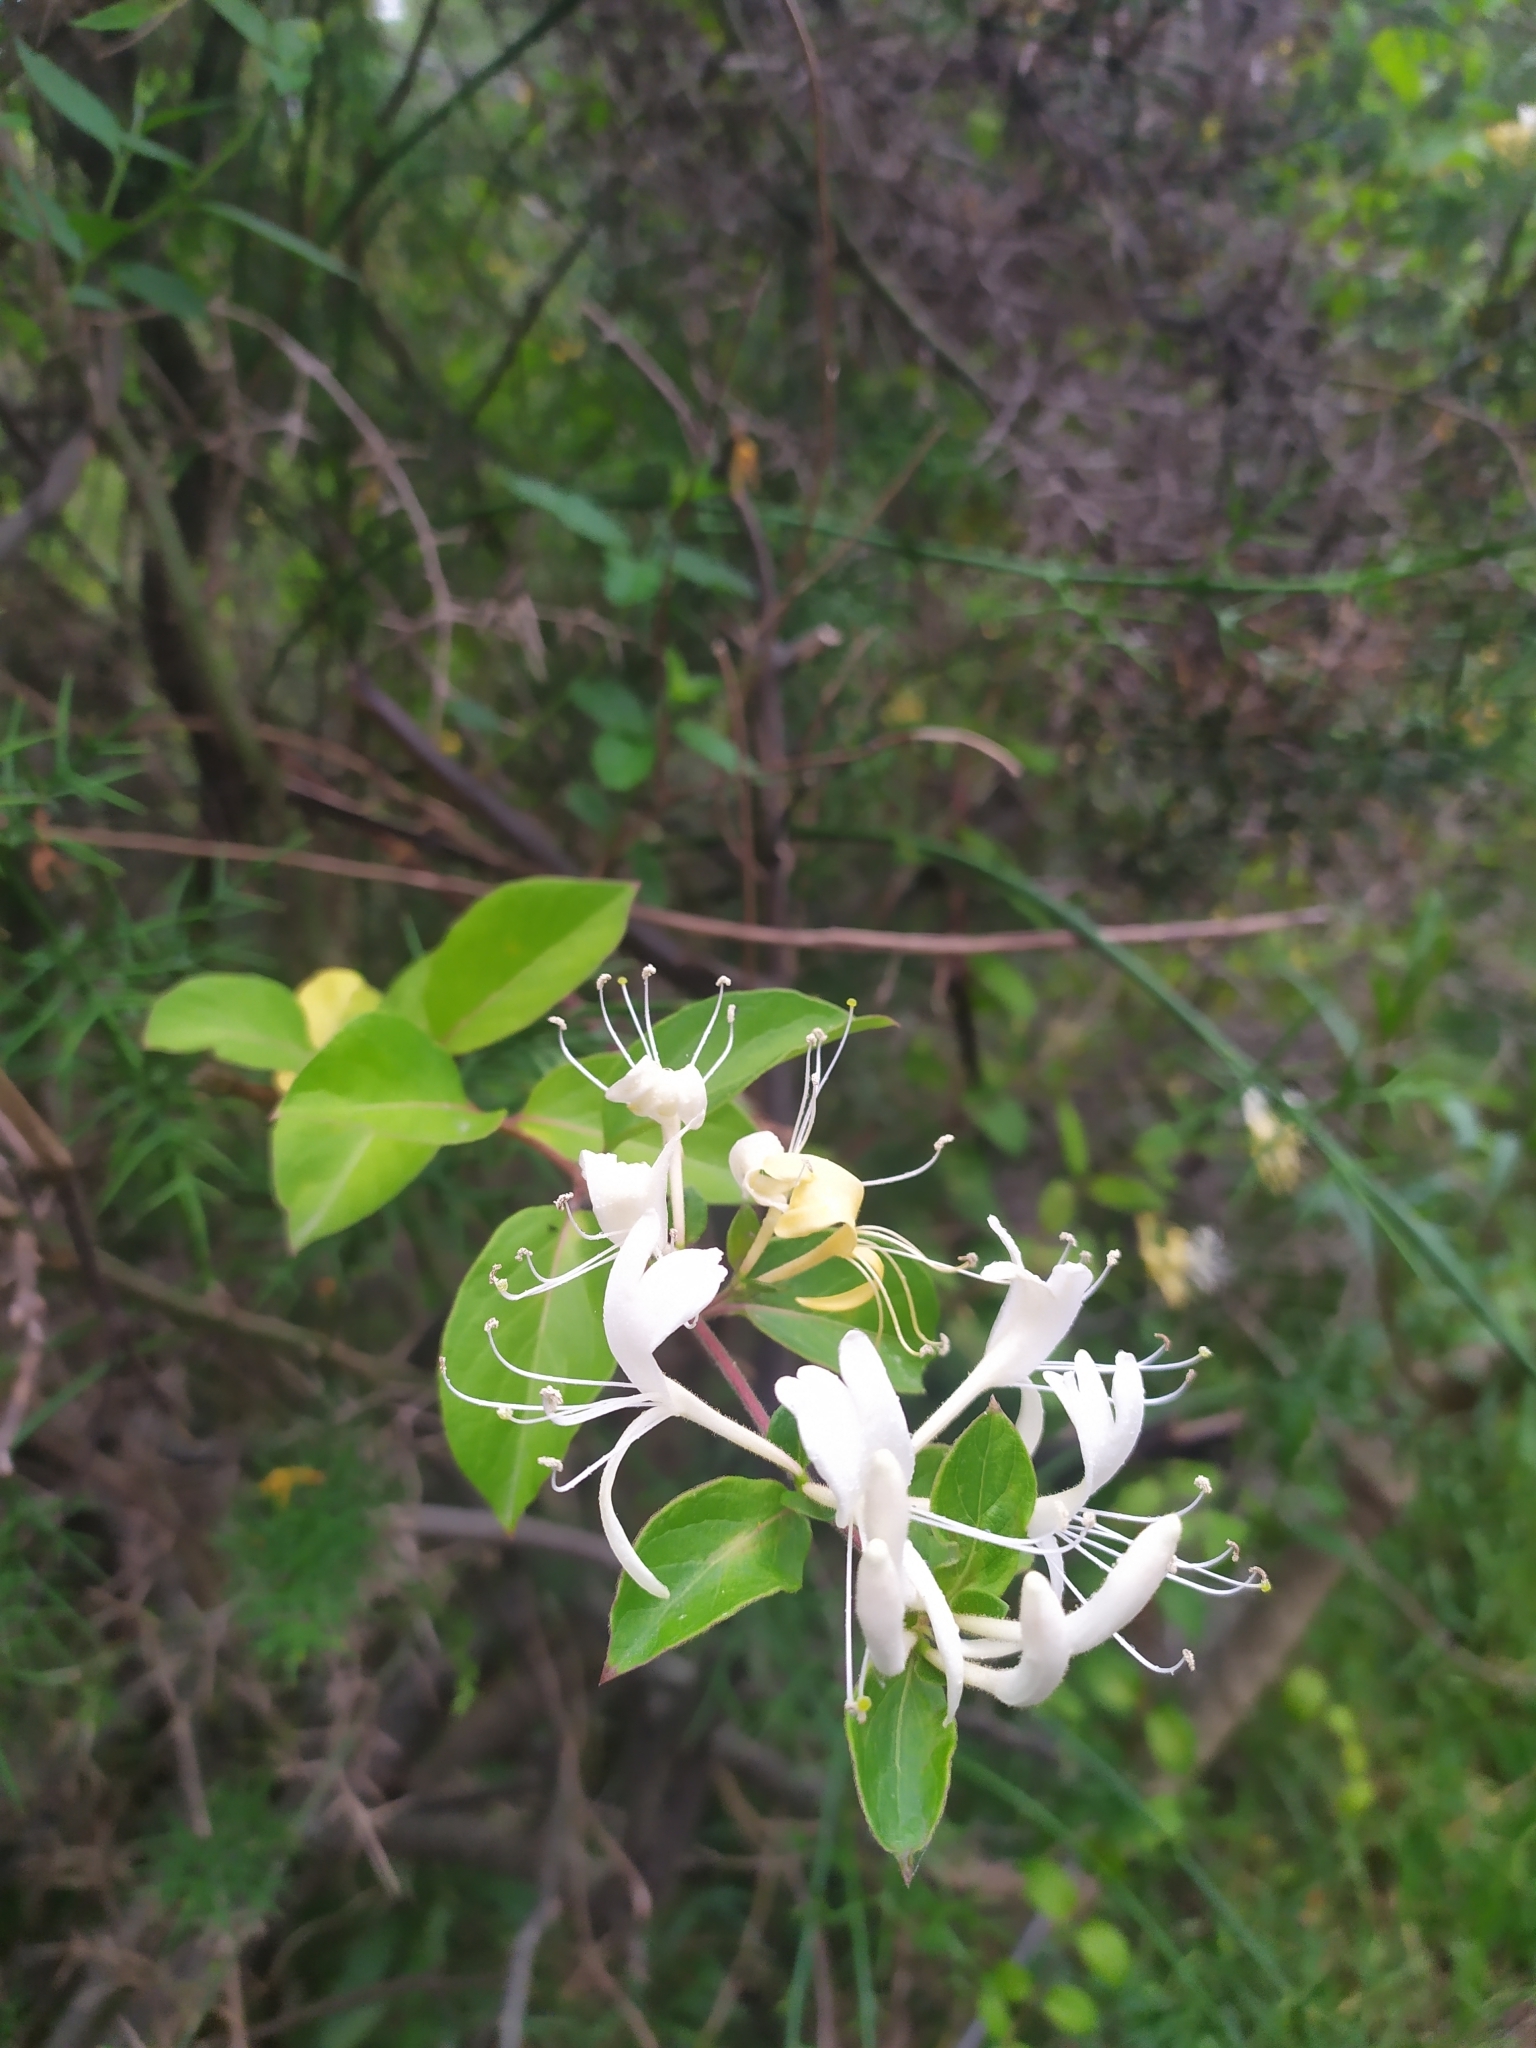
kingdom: Plantae
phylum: Tracheophyta
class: Magnoliopsida
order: Dipsacales
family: Caprifoliaceae
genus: Lonicera
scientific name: Lonicera japonica
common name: Japanese honeysuckle
